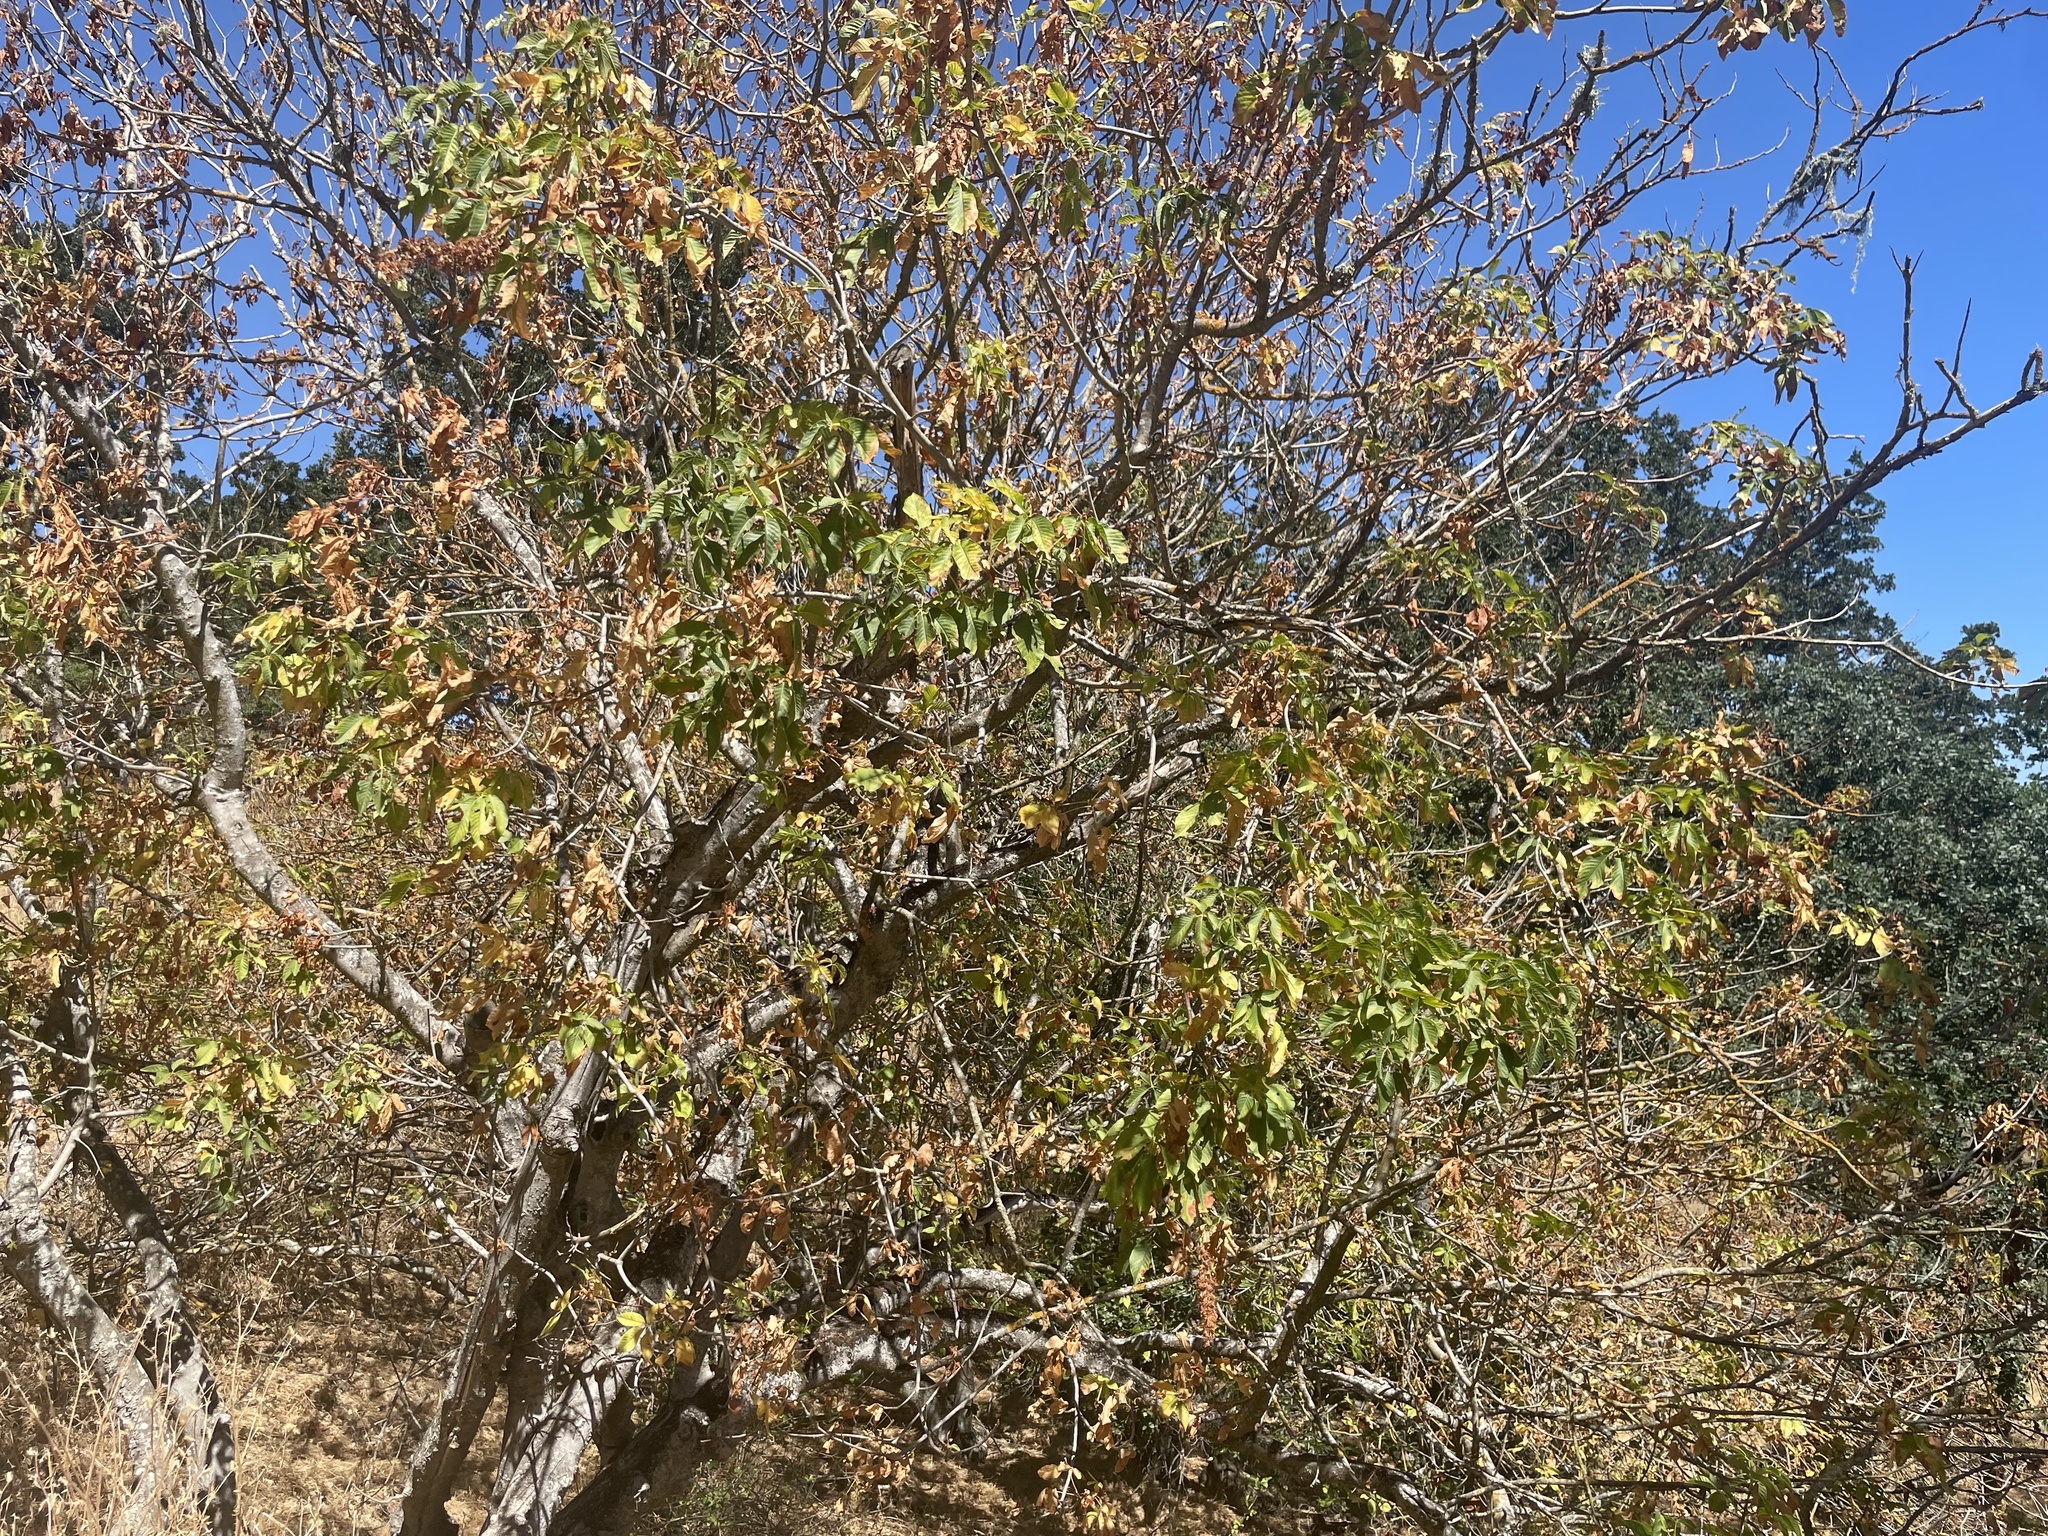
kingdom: Plantae
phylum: Tracheophyta
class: Magnoliopsida
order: Sapindales
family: Sapindaceae
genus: Aesculus
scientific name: Aesculus californica
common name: California buckeye
